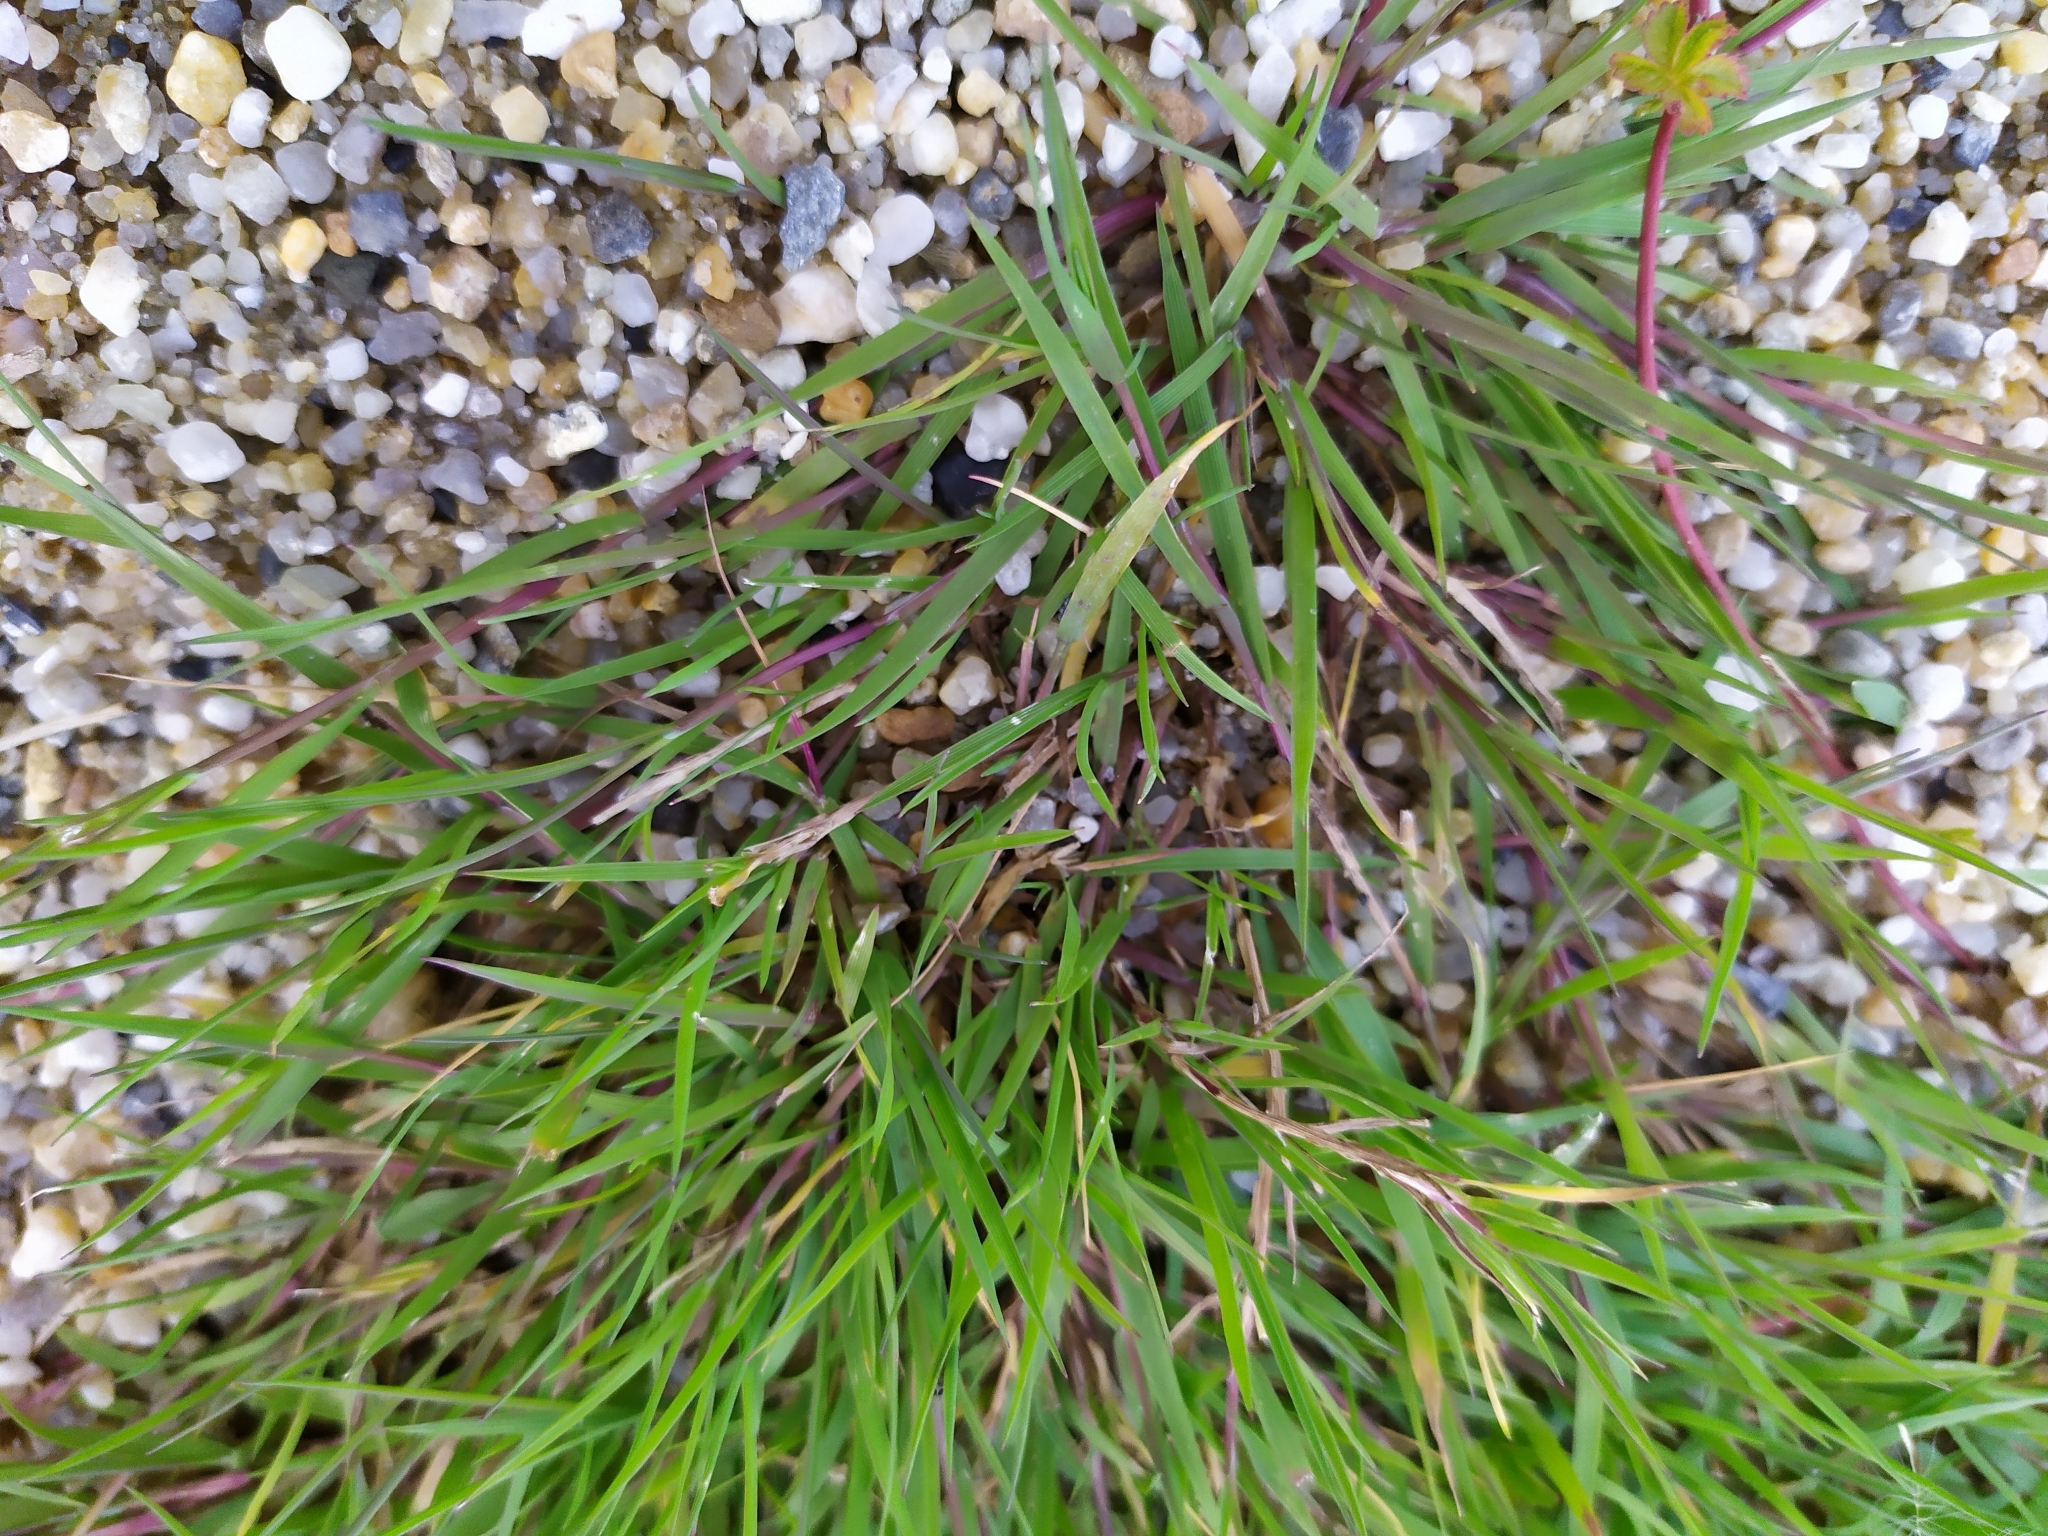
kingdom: Plantae
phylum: Tracheophyta
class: Liliopsida
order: Poales
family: Poaceae
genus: Agrostis
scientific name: Agrostis stolonifera
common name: Creeping bentgrass
